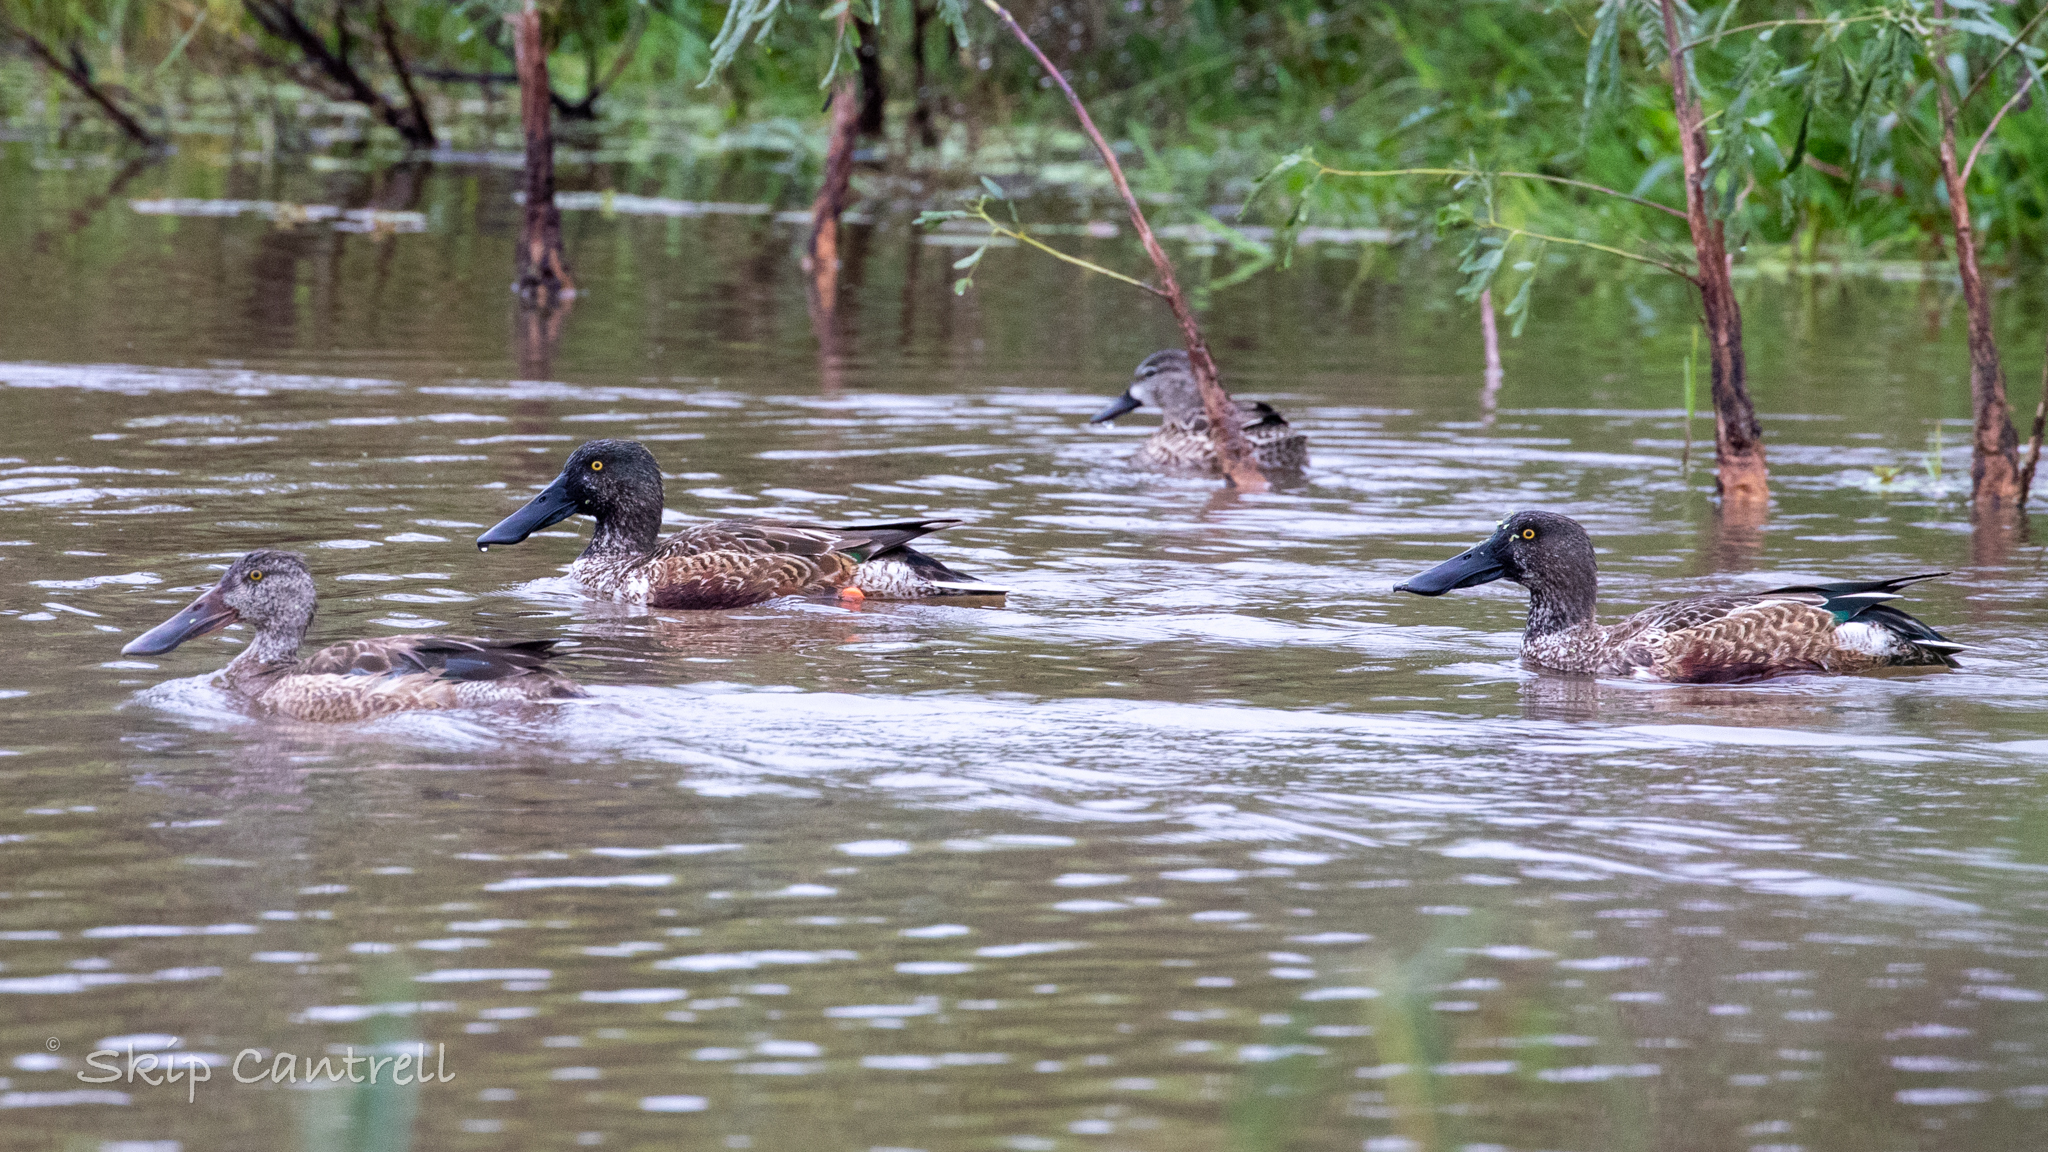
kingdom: Animalia
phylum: Chordata
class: Aves
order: Anseriformes
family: Anatidae
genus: Spatula
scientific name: Spatula clypeata
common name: Northern shoveler
